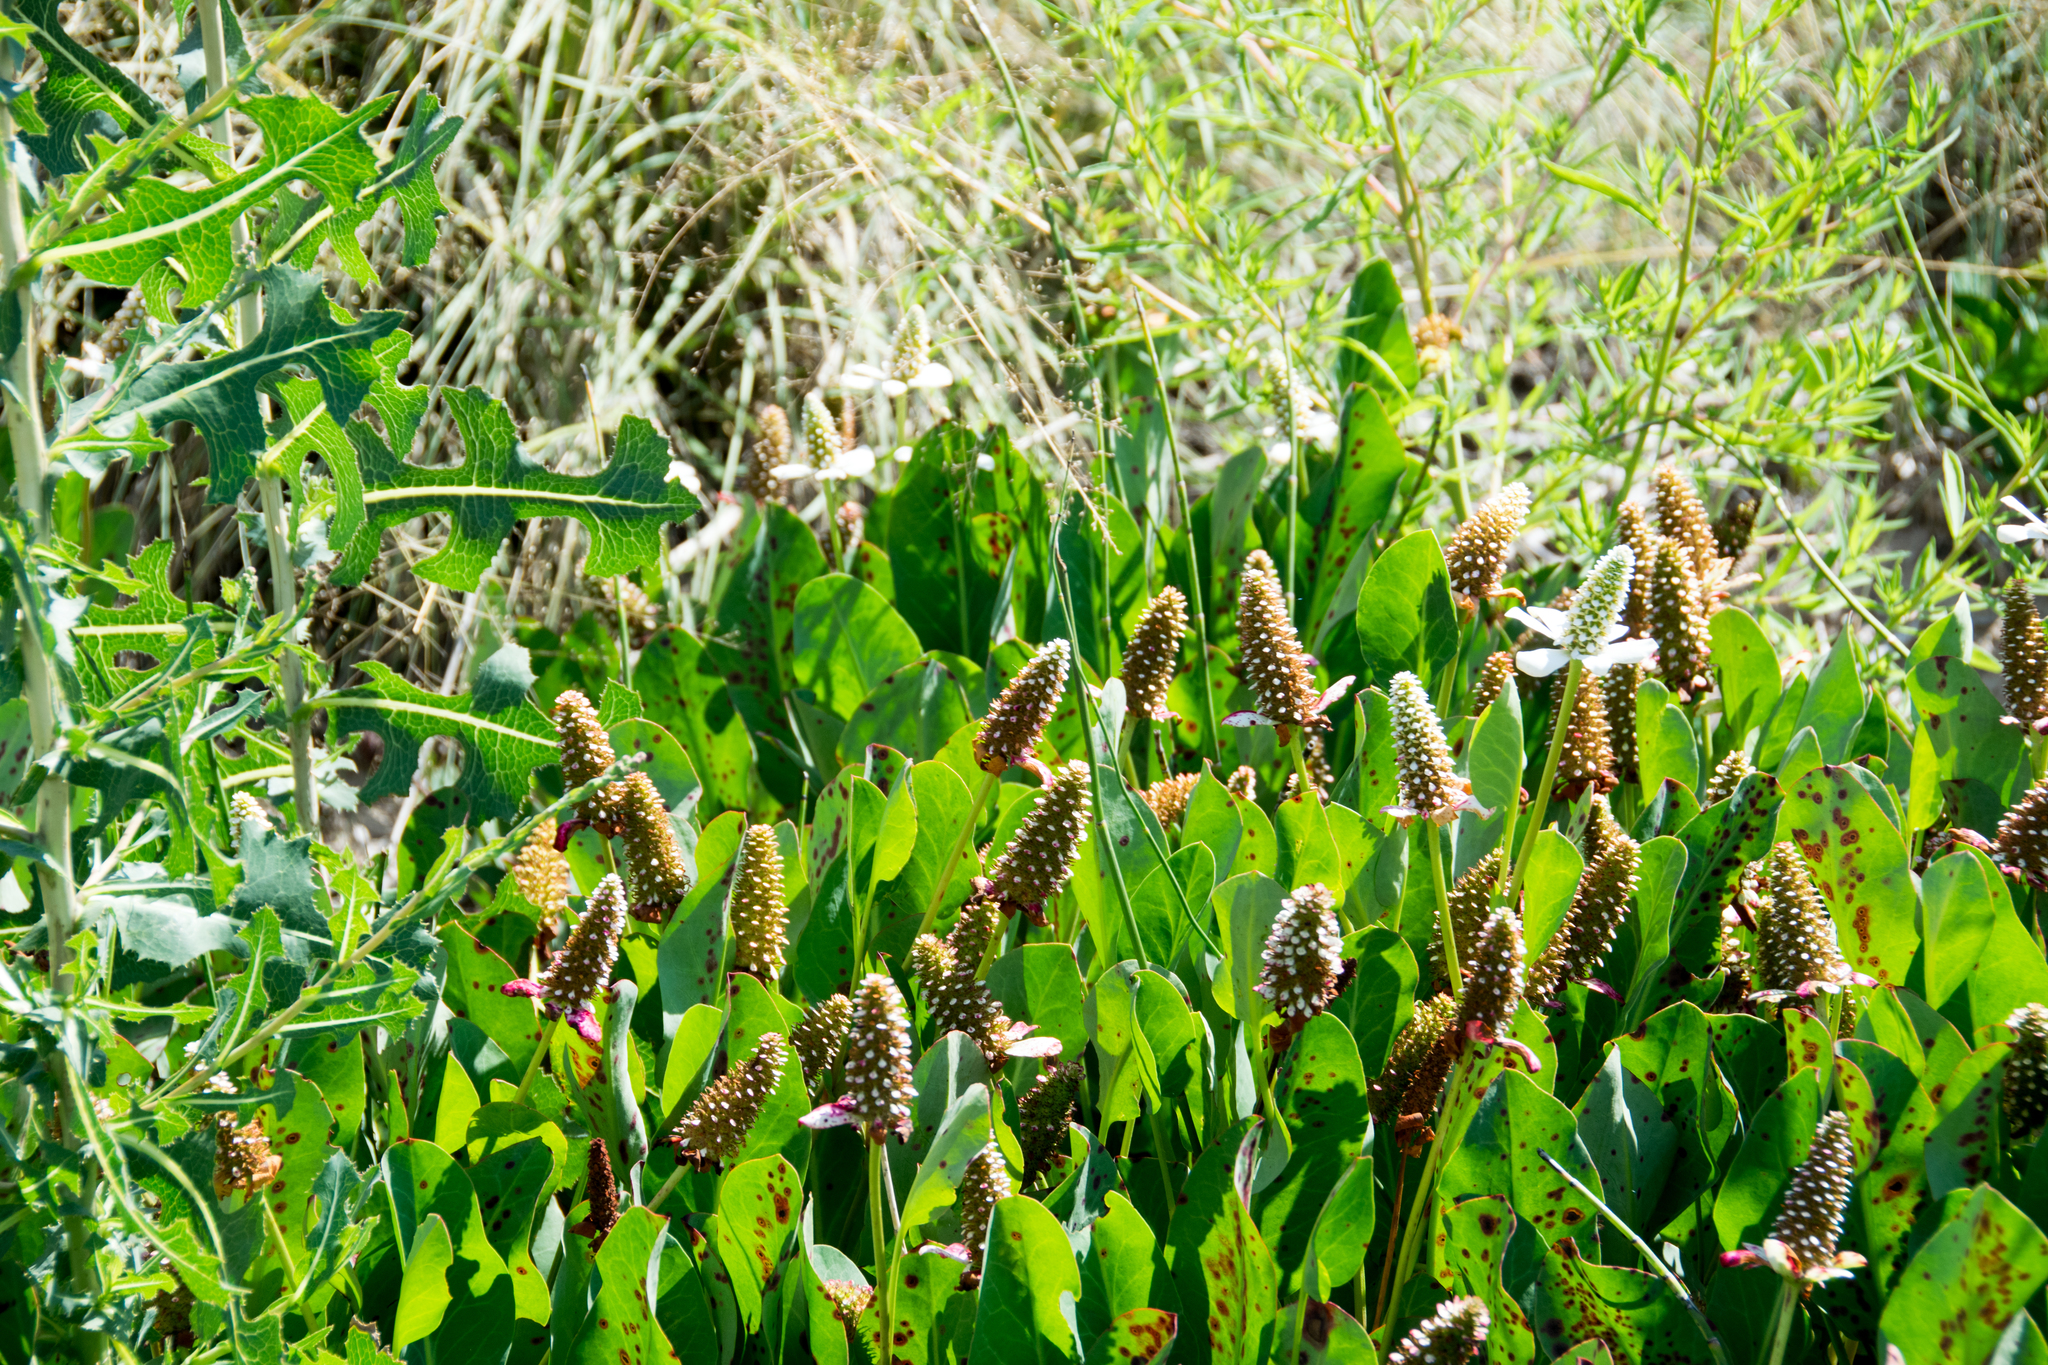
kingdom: Plantae
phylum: Tracheophyta
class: Magnoliopsida
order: Piperales
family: Saururaceae
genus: Anemopsis
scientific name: Anemopsis californica
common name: Apache-beads
